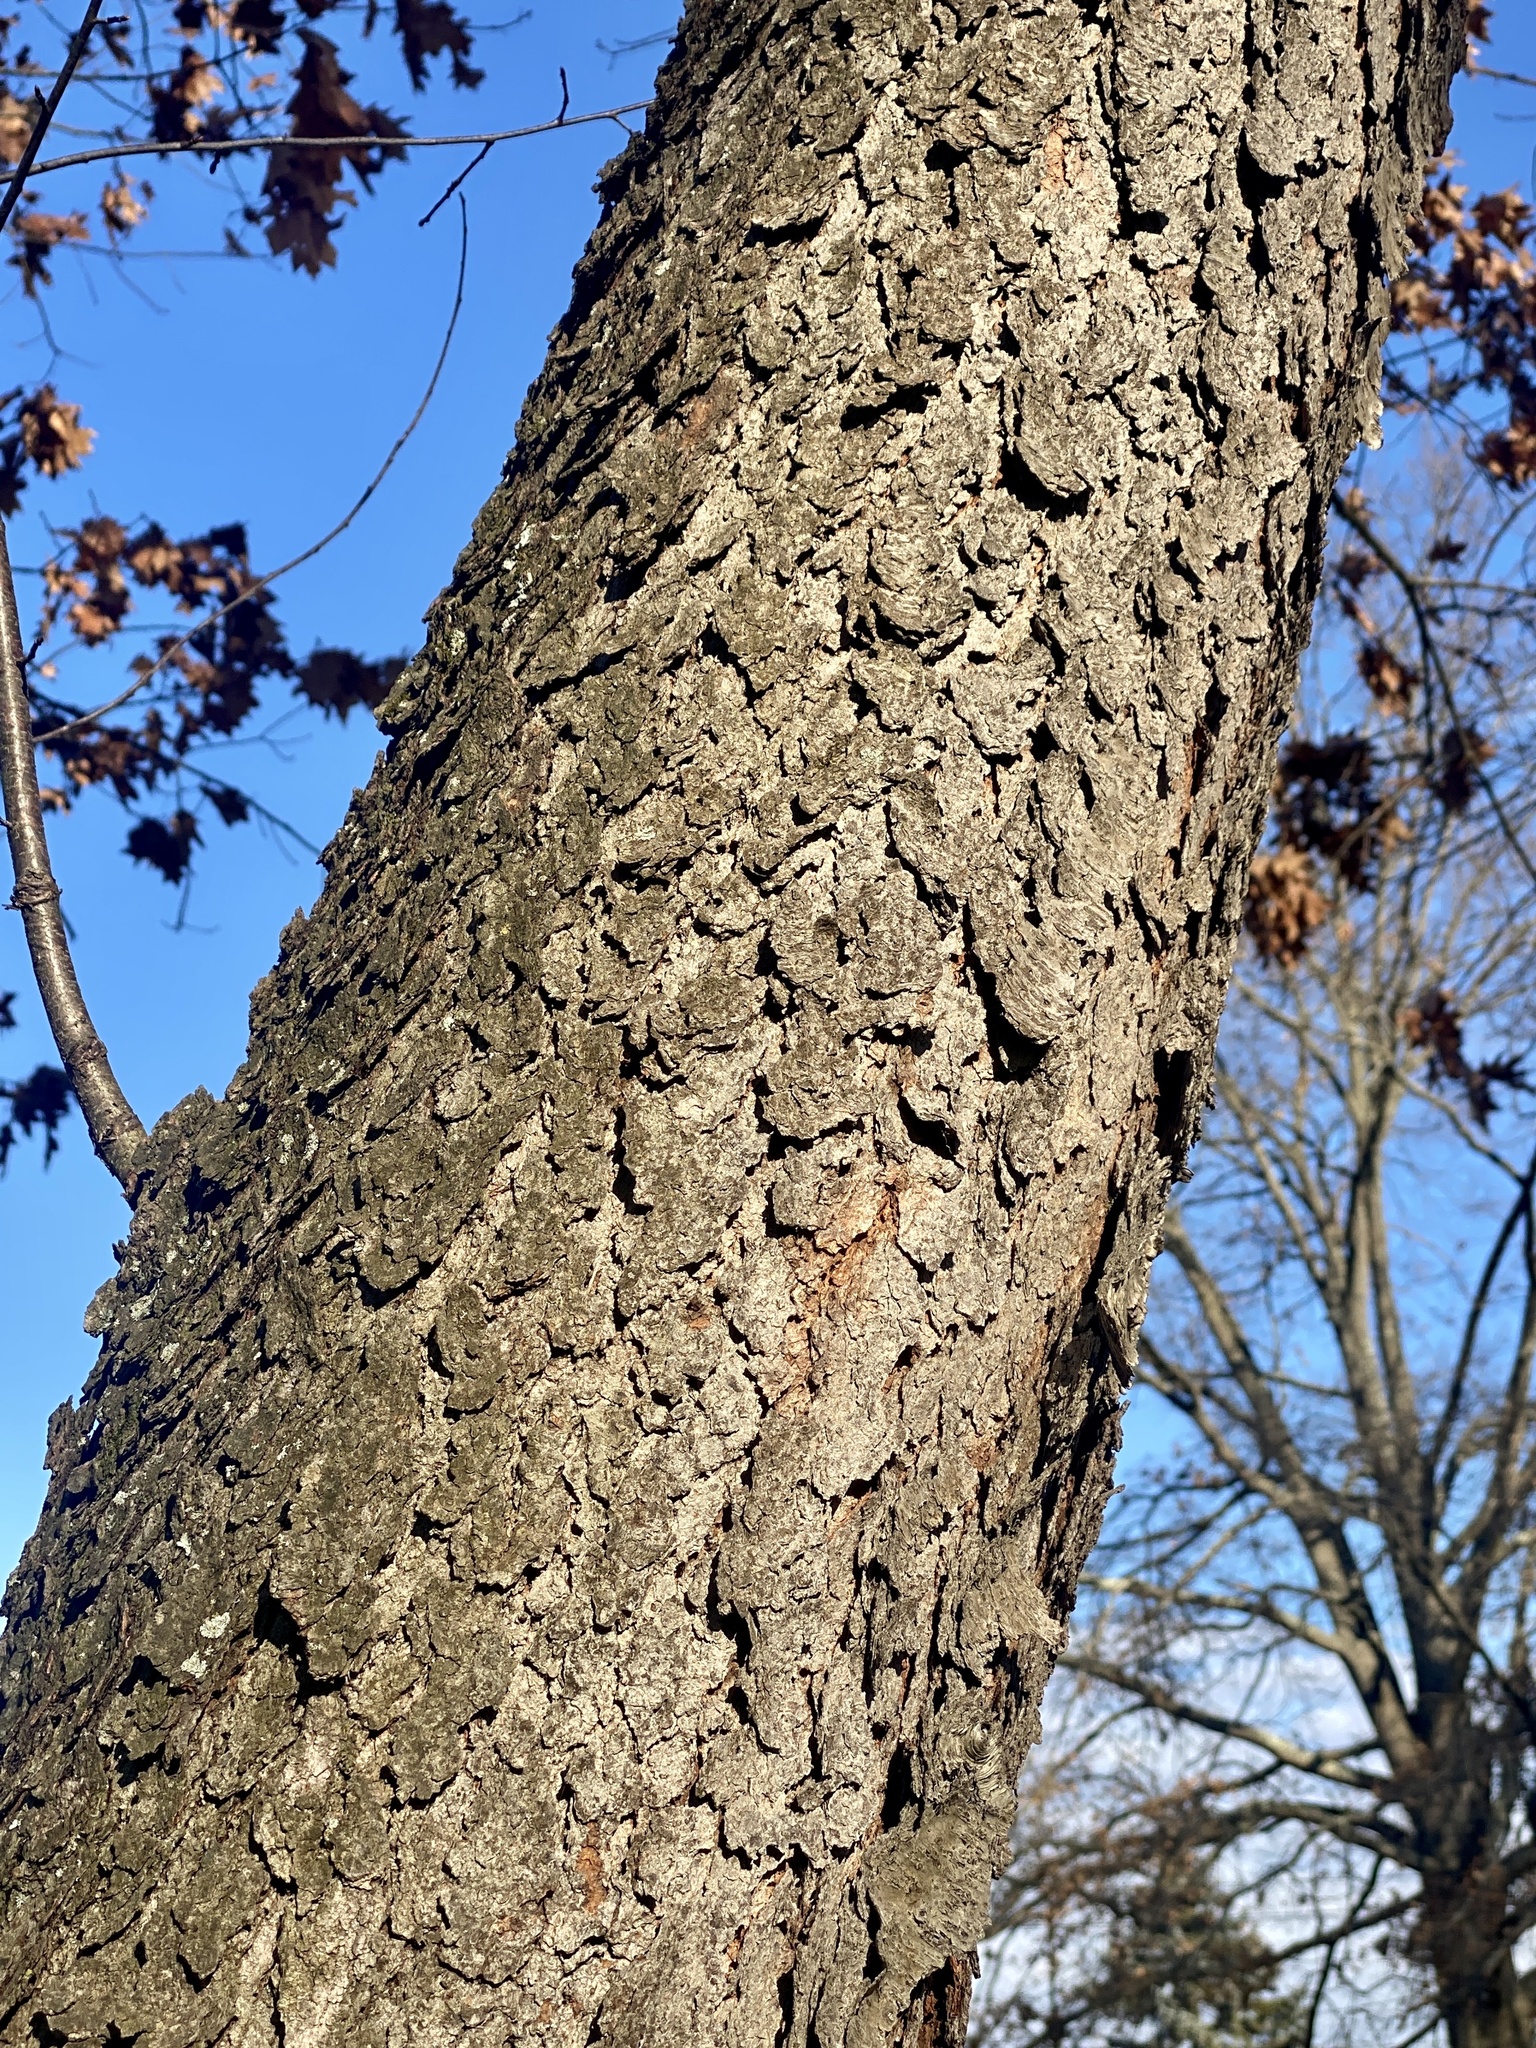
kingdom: Plantae
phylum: Tracheophyta
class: Magnoliopsida
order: Rosales
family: Rosaceae
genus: Prunus
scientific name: Prunus serotina
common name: Black cherry
